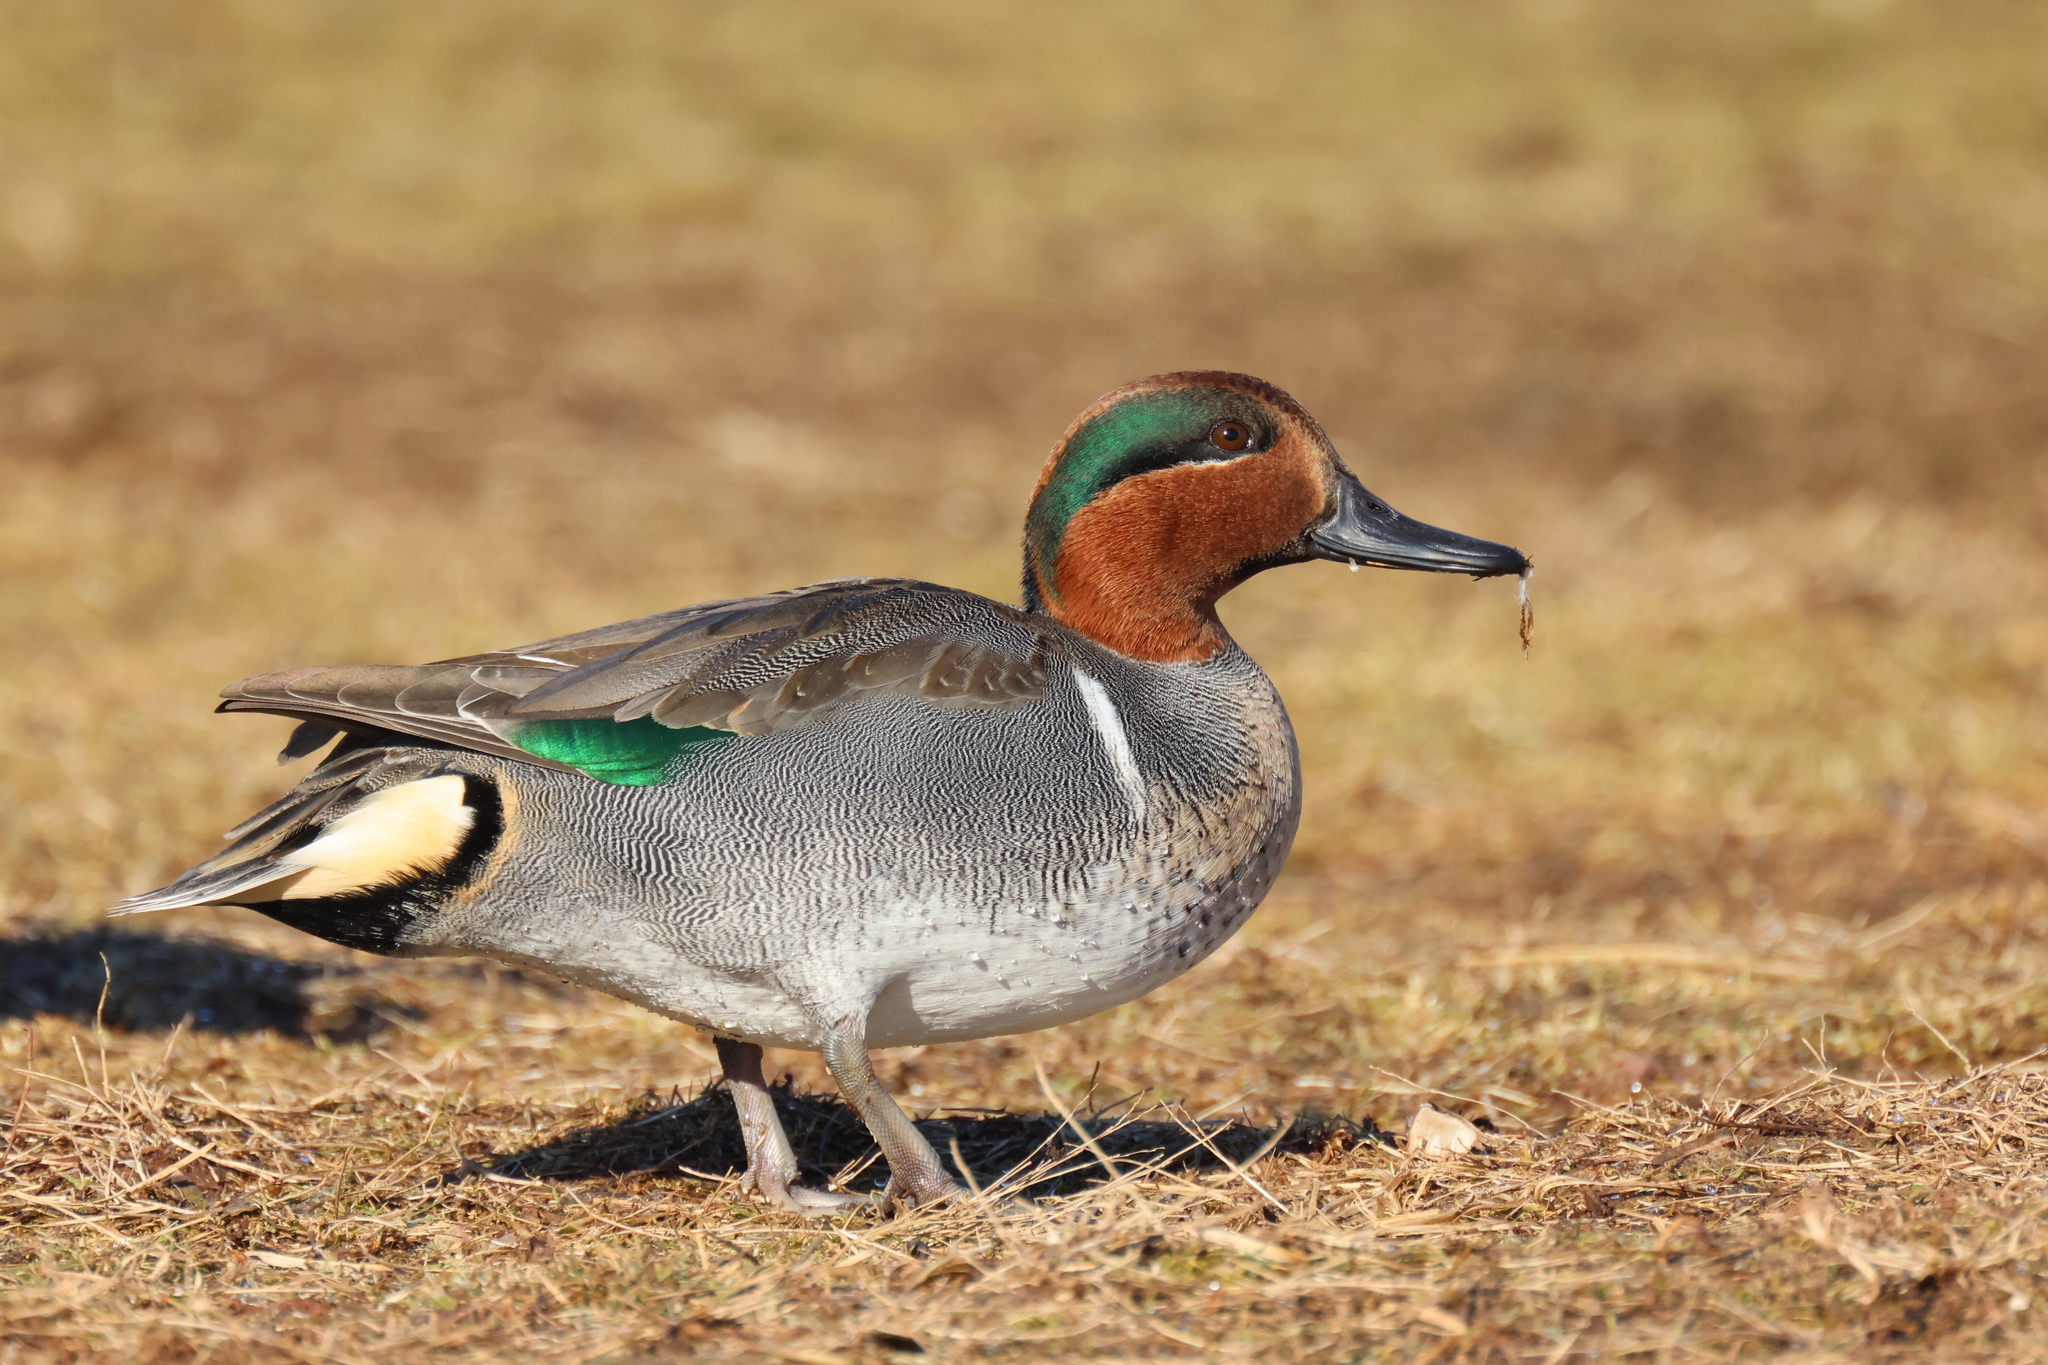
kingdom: Animalia
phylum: Chordata
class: Aves
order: Anseriformes
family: Anatidae
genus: Anas
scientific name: Anas crecca
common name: Eurasian teal
